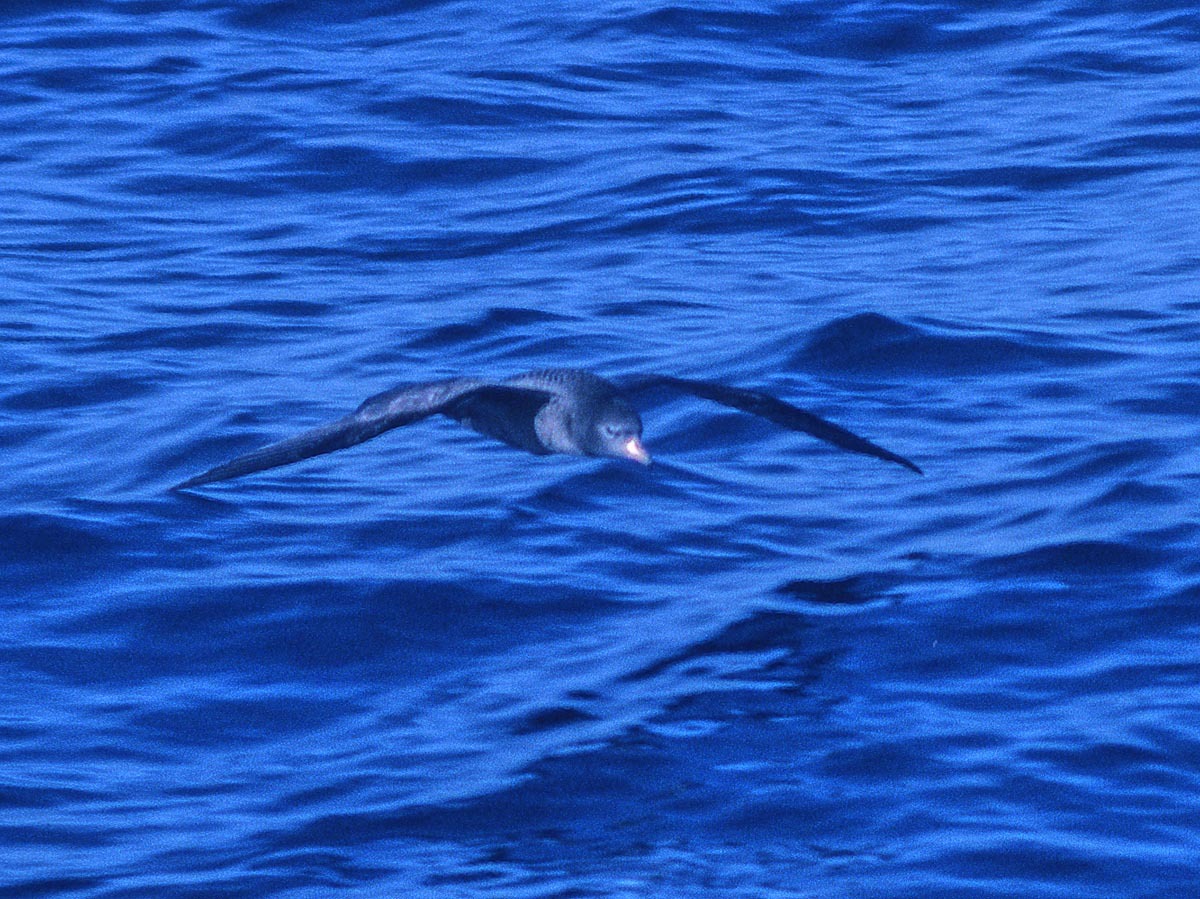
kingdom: Animalia
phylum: Chordata
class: Aves
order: Procellariiformes
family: Procellariidae
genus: Puffinus
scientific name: Puffinus carneipes
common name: Flesh-footed shearwater
